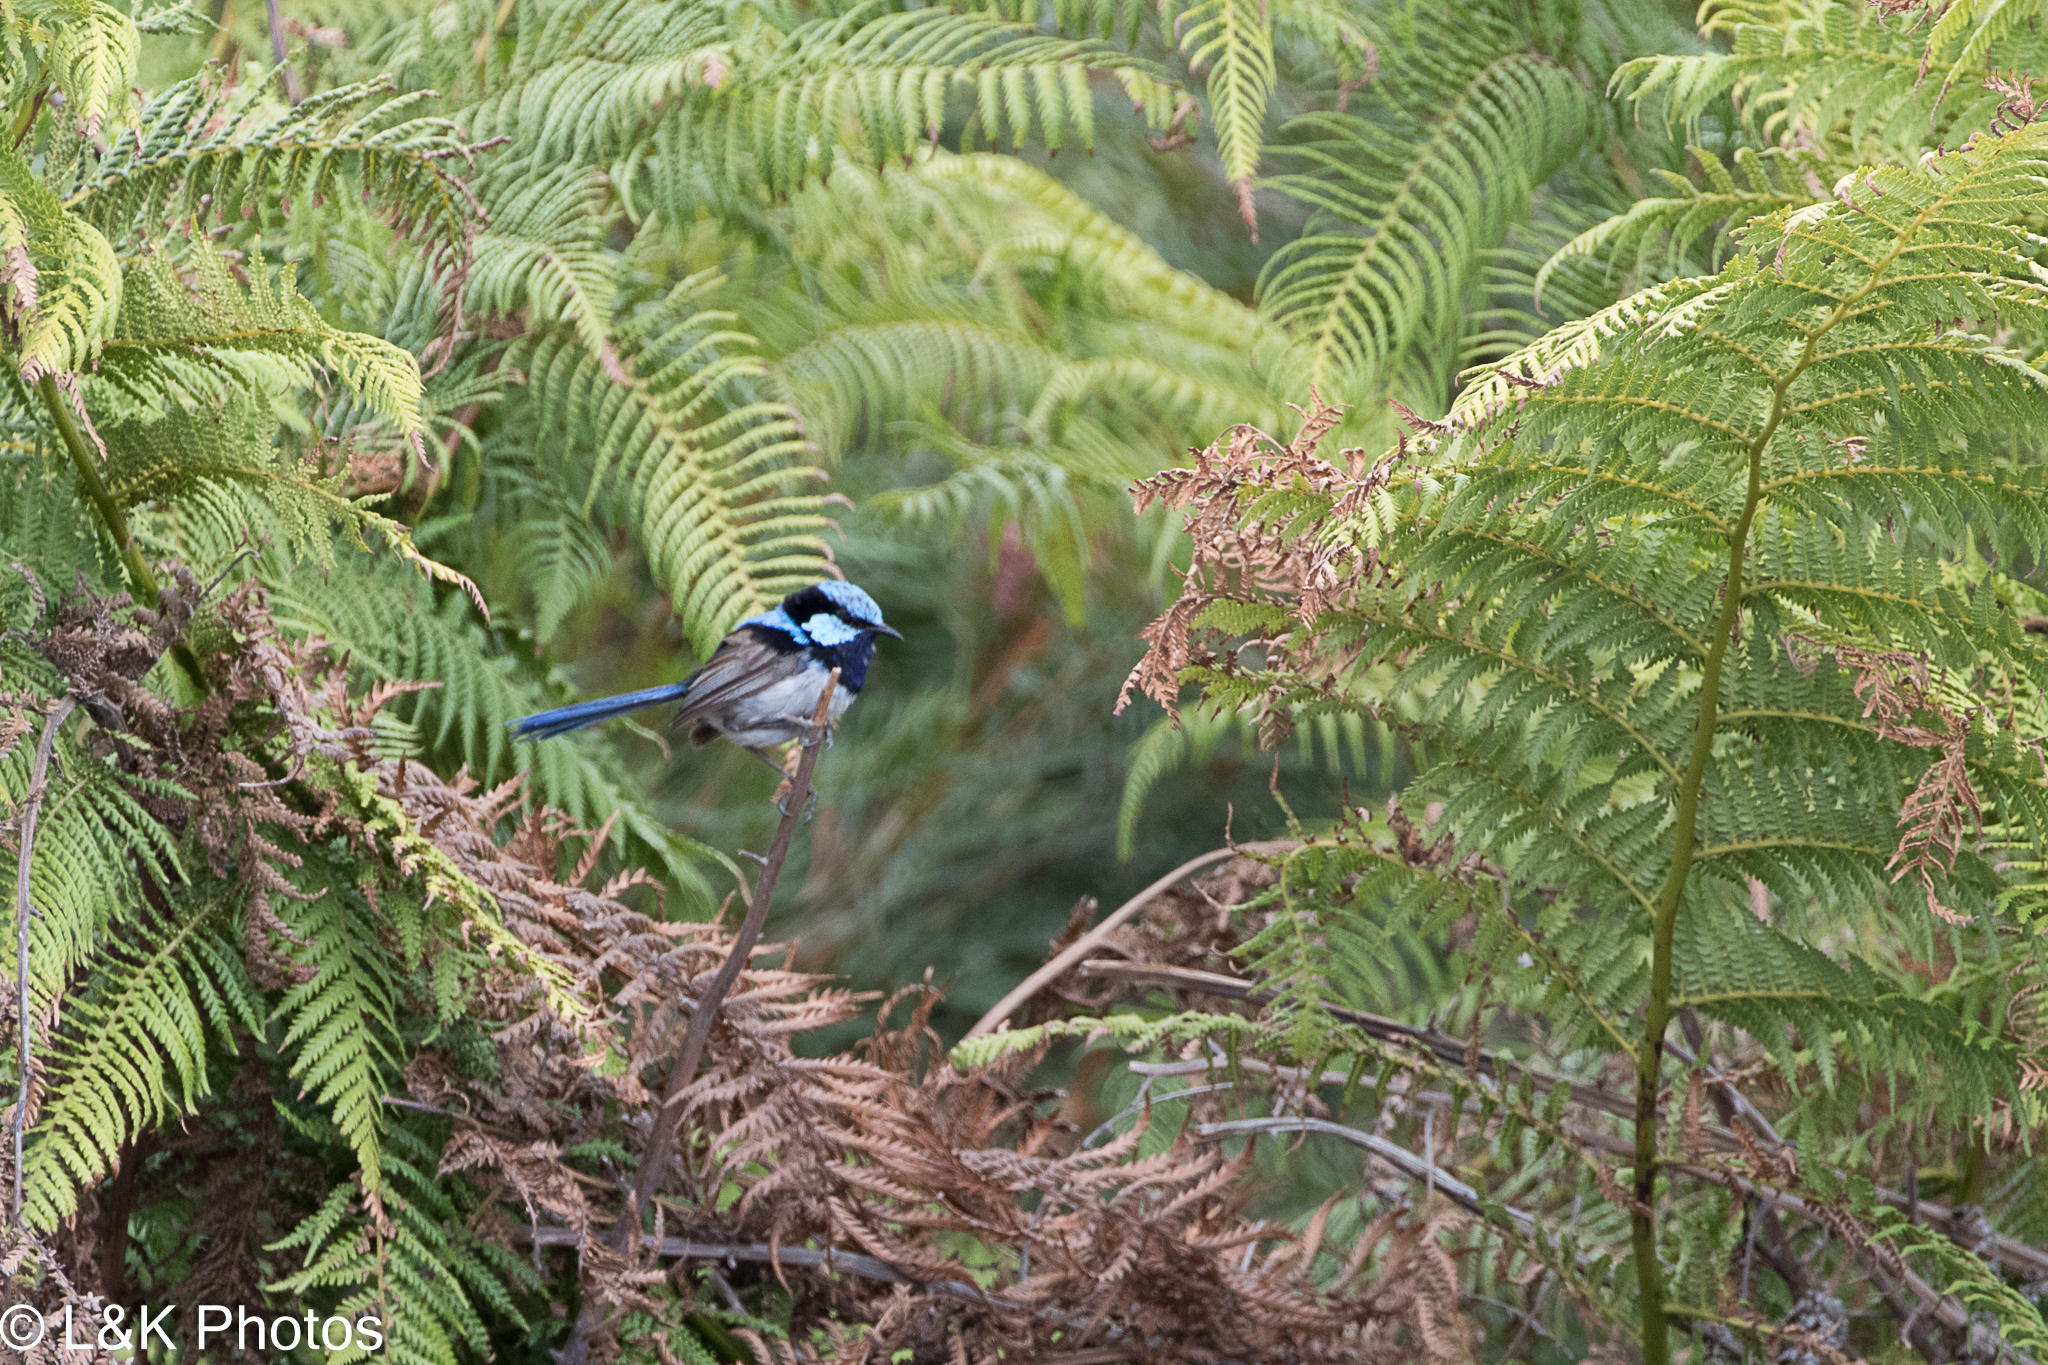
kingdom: Animalia
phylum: Chordata
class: Aves
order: Passeriformes
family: Maluridae
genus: Malurus
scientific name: Malurus cyaneus
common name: Superb fairywren
